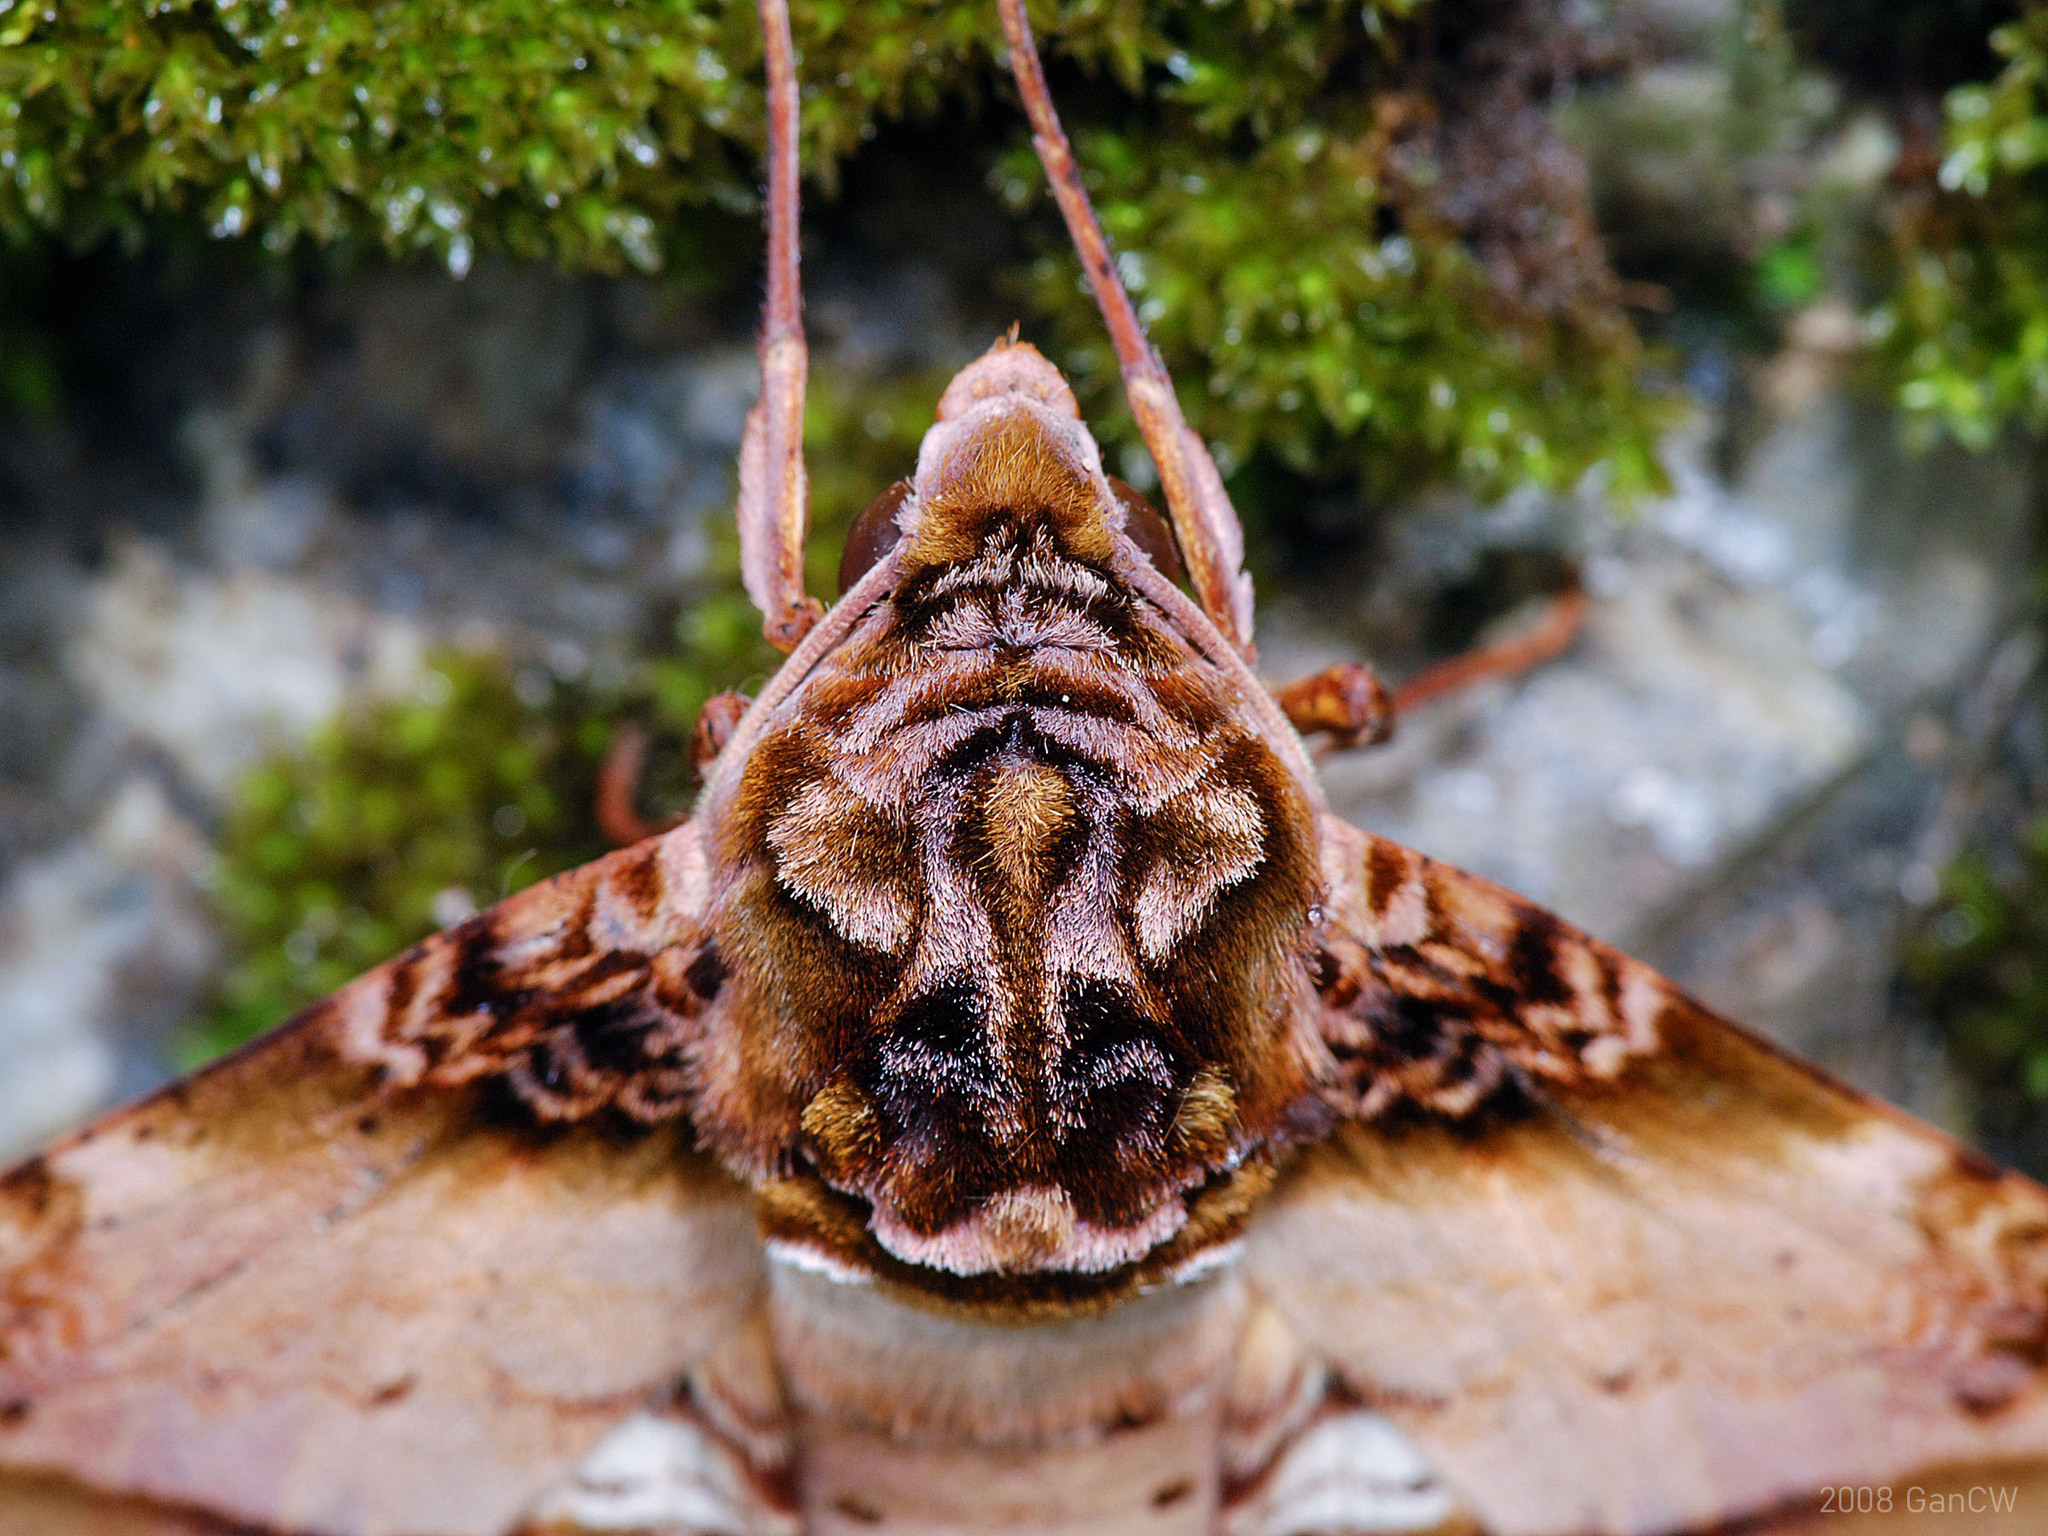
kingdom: Animalia
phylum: Arthropoda
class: Insecta
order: Lepidoptera
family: Sphingidae
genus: Amplypterus
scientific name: Amplypterus mansoni
